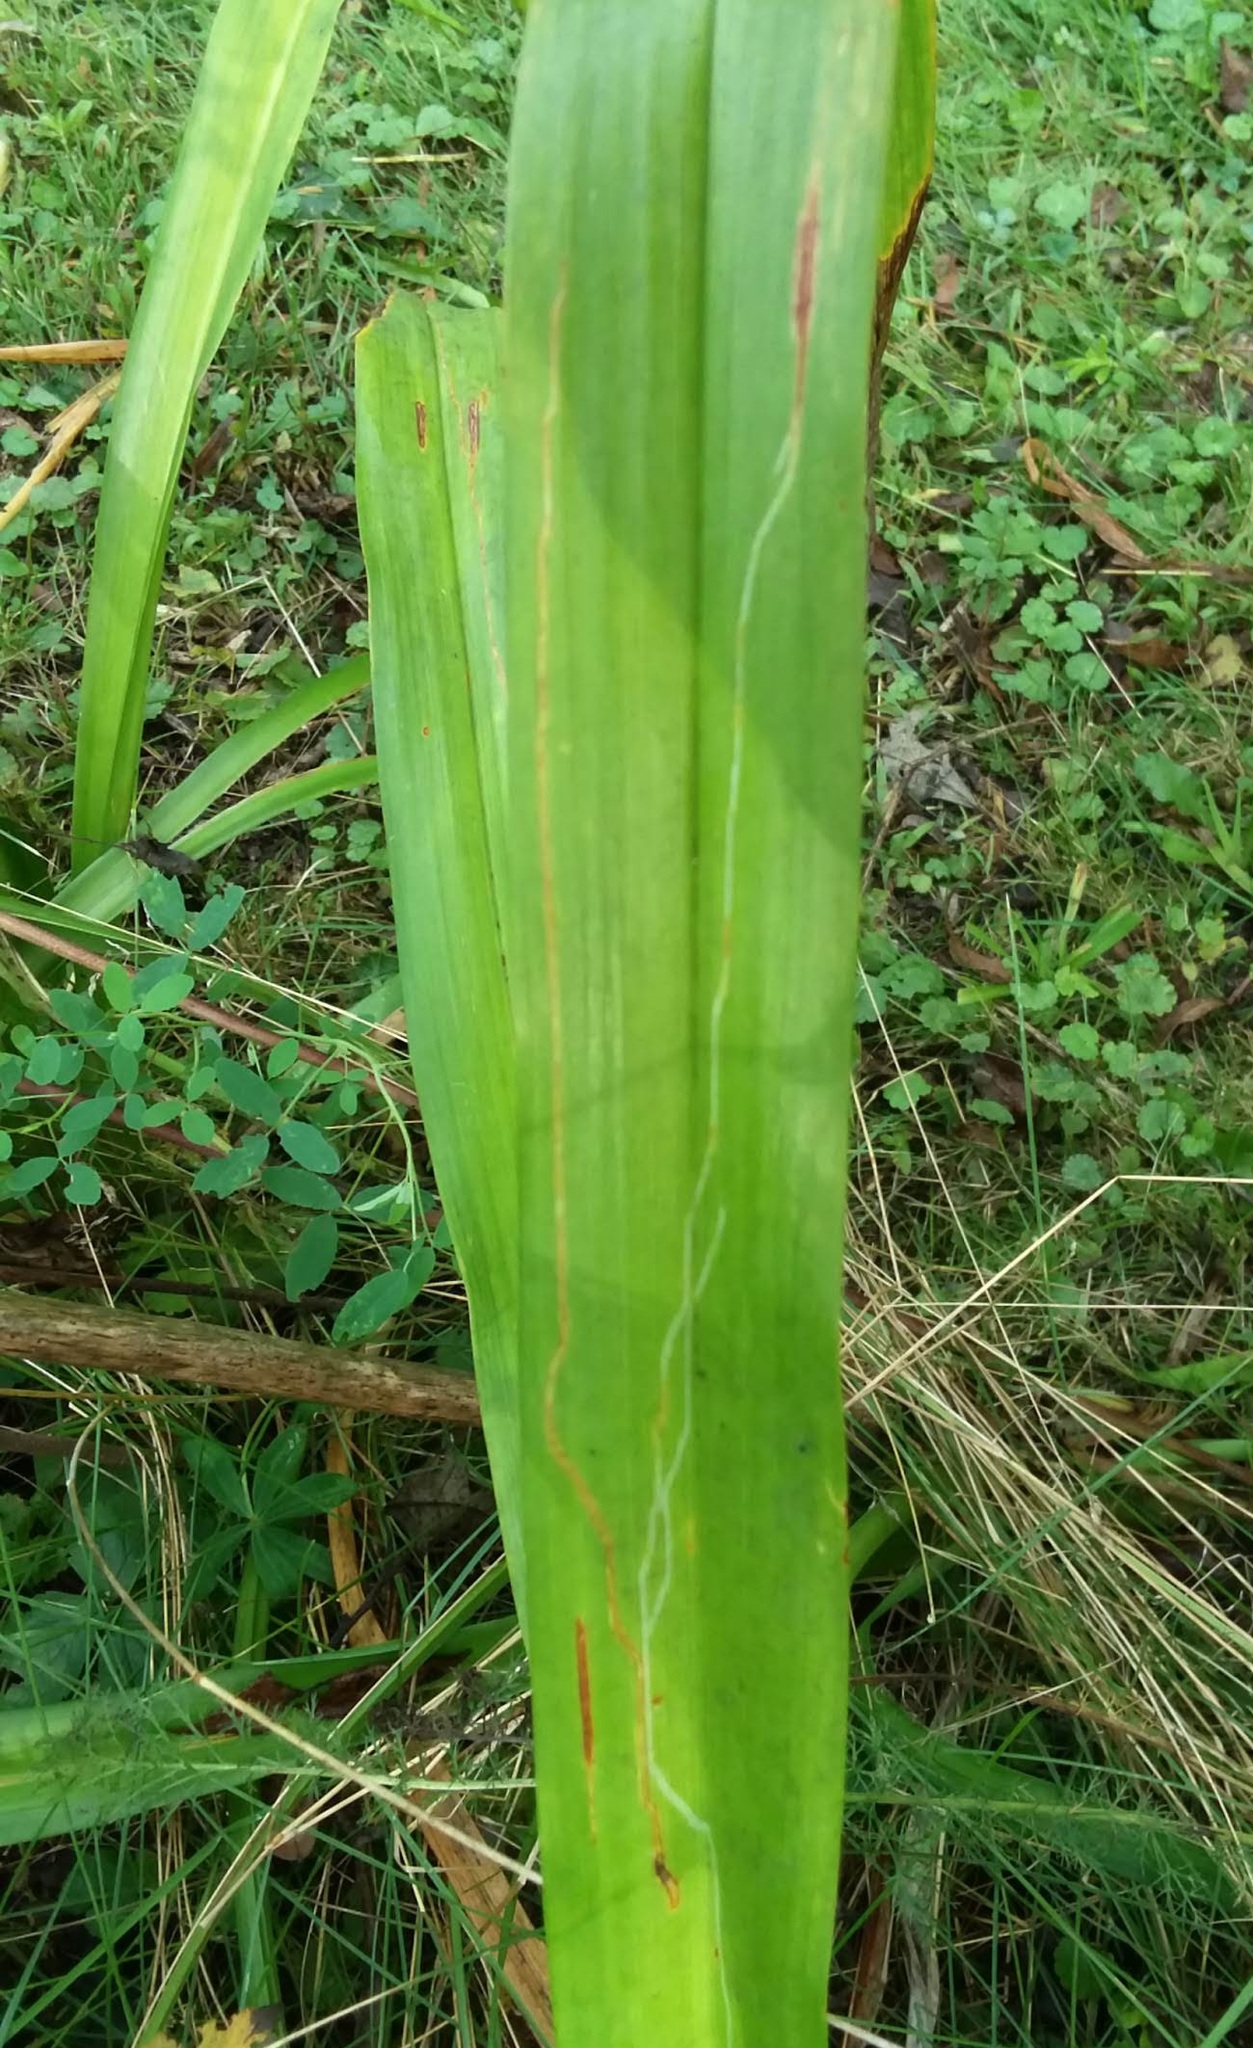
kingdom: Animalia
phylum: Arthropoda
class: Insecta
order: Diptera
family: Agromyzidae
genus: Ophiomyia
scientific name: Ophiomyia kwansonis
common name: Daylily leafminer
